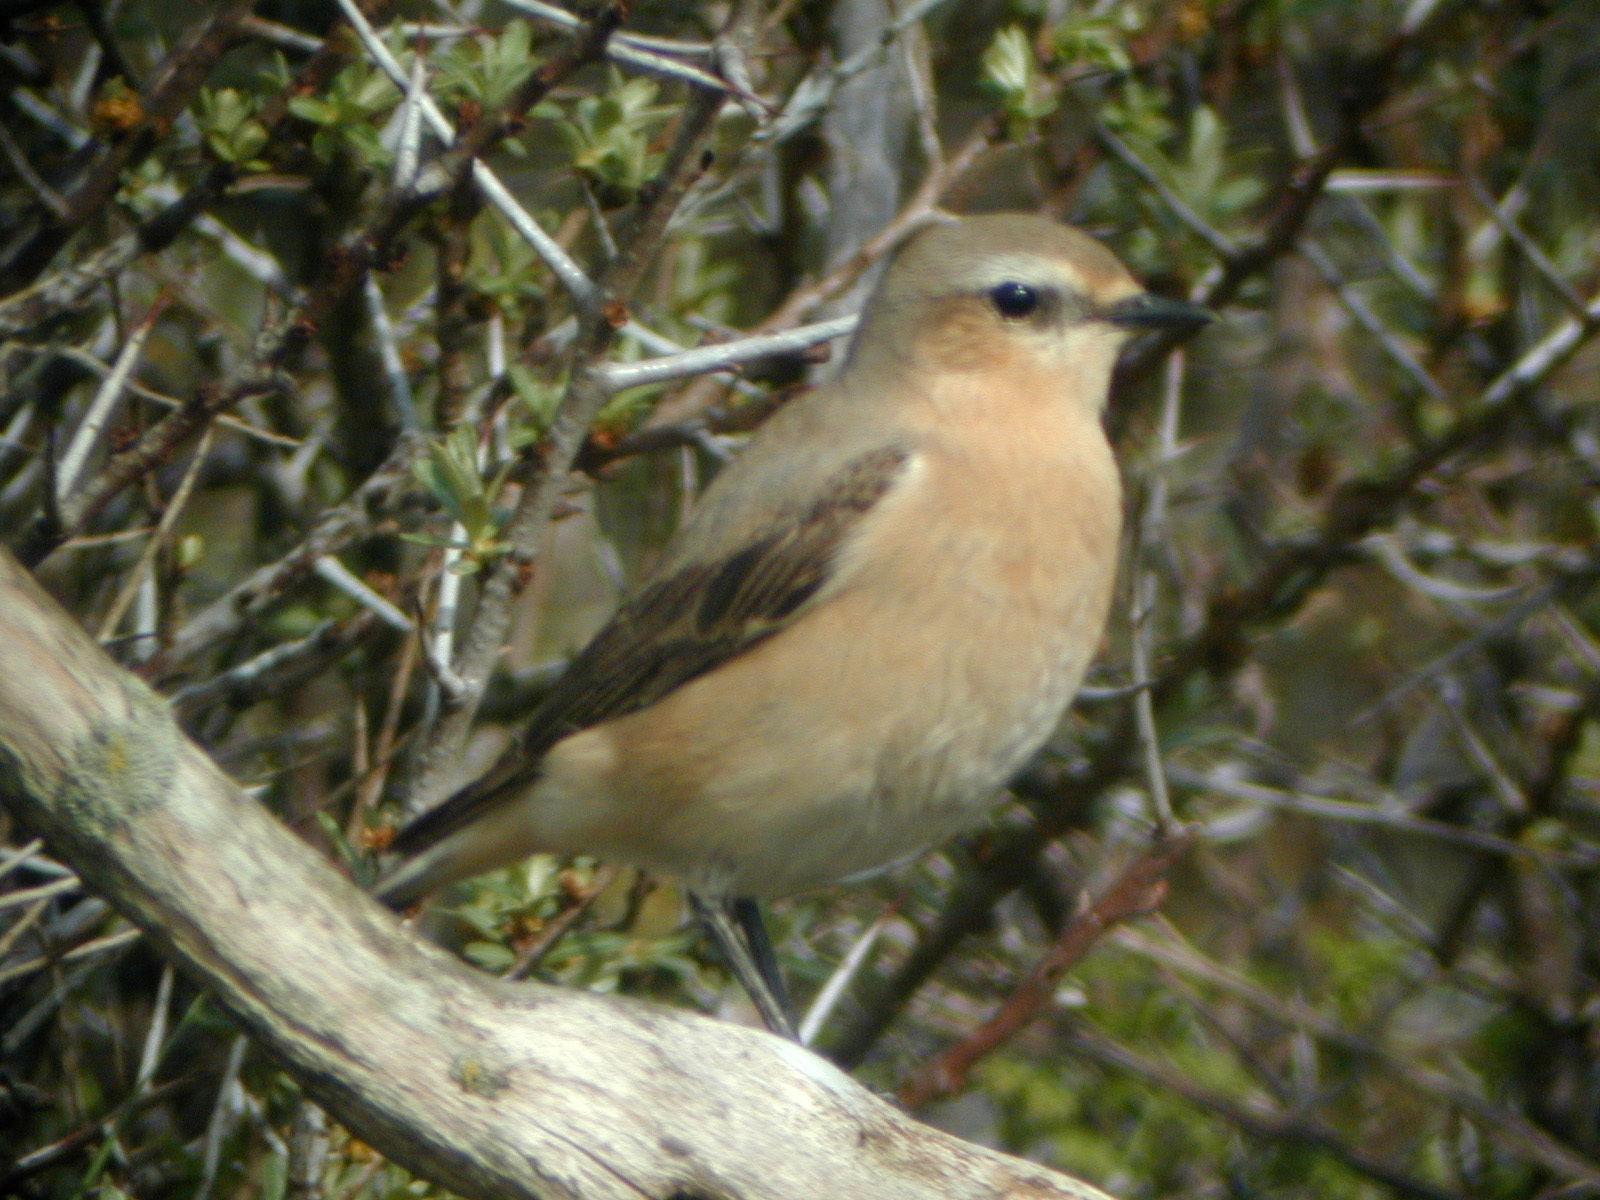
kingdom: Animalia
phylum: Chordata
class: Aves
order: Passeriformes
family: Muscicapidae
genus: Oenanthe
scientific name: Oenanthe oenanthe
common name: Northern wheatear
